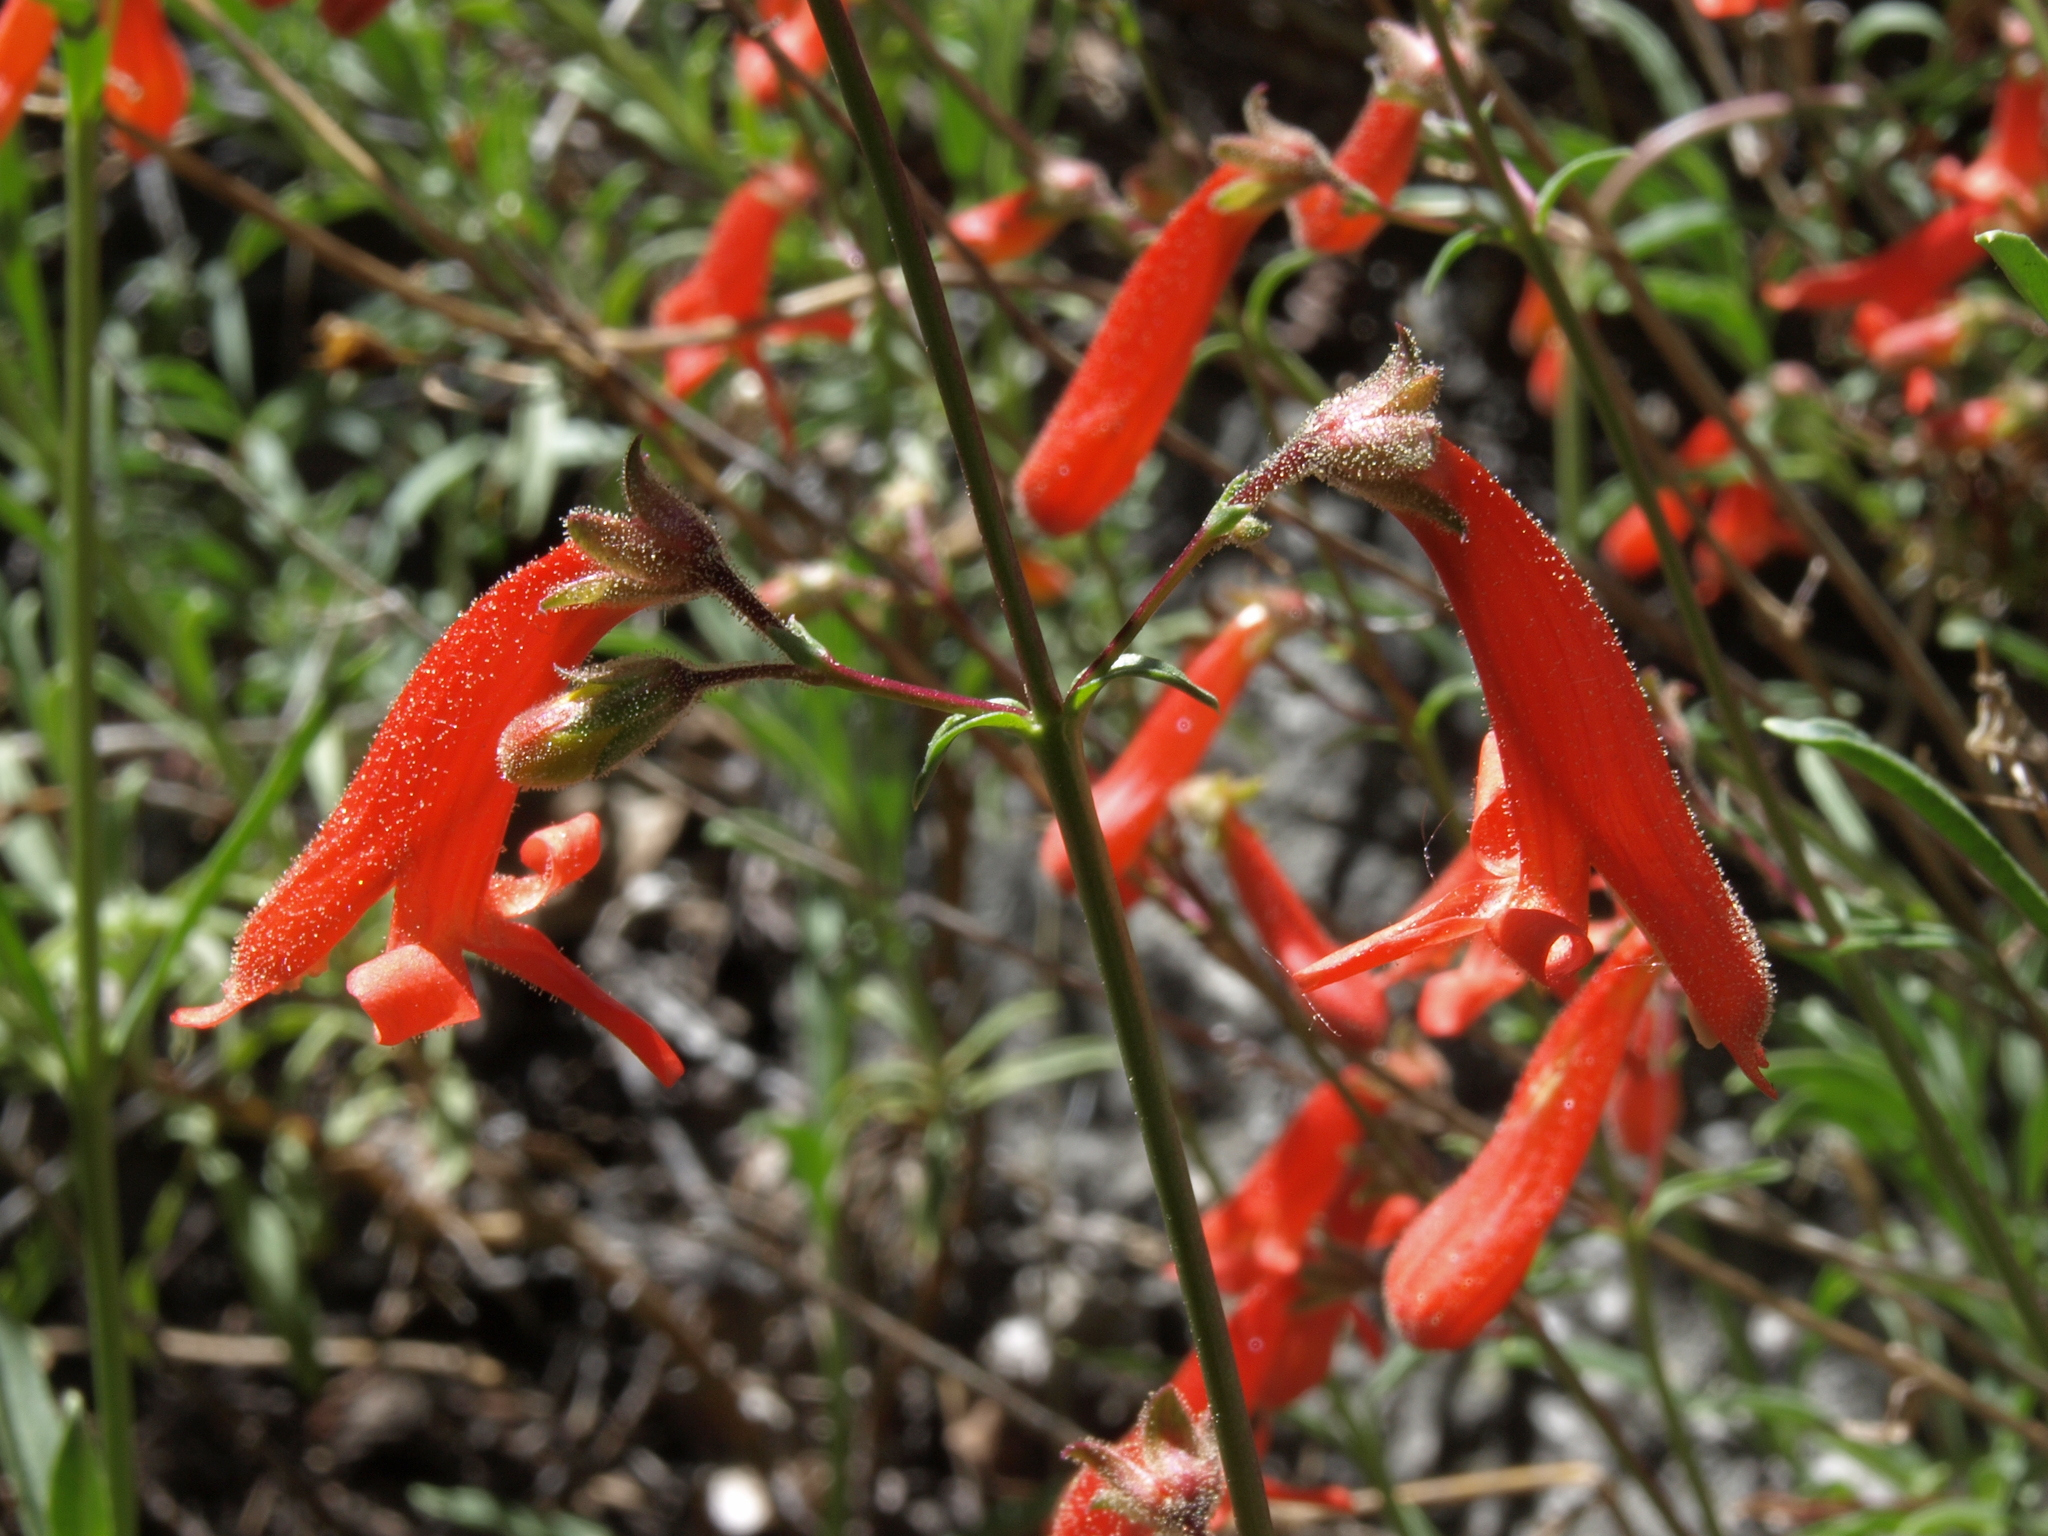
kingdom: Plantae
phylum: Tracheophyta
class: Magnoliopsida
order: Lamiales
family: Plantaginaceae
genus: Penstemon
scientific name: Penstemon rostriflorus
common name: Bridges's penstemon
